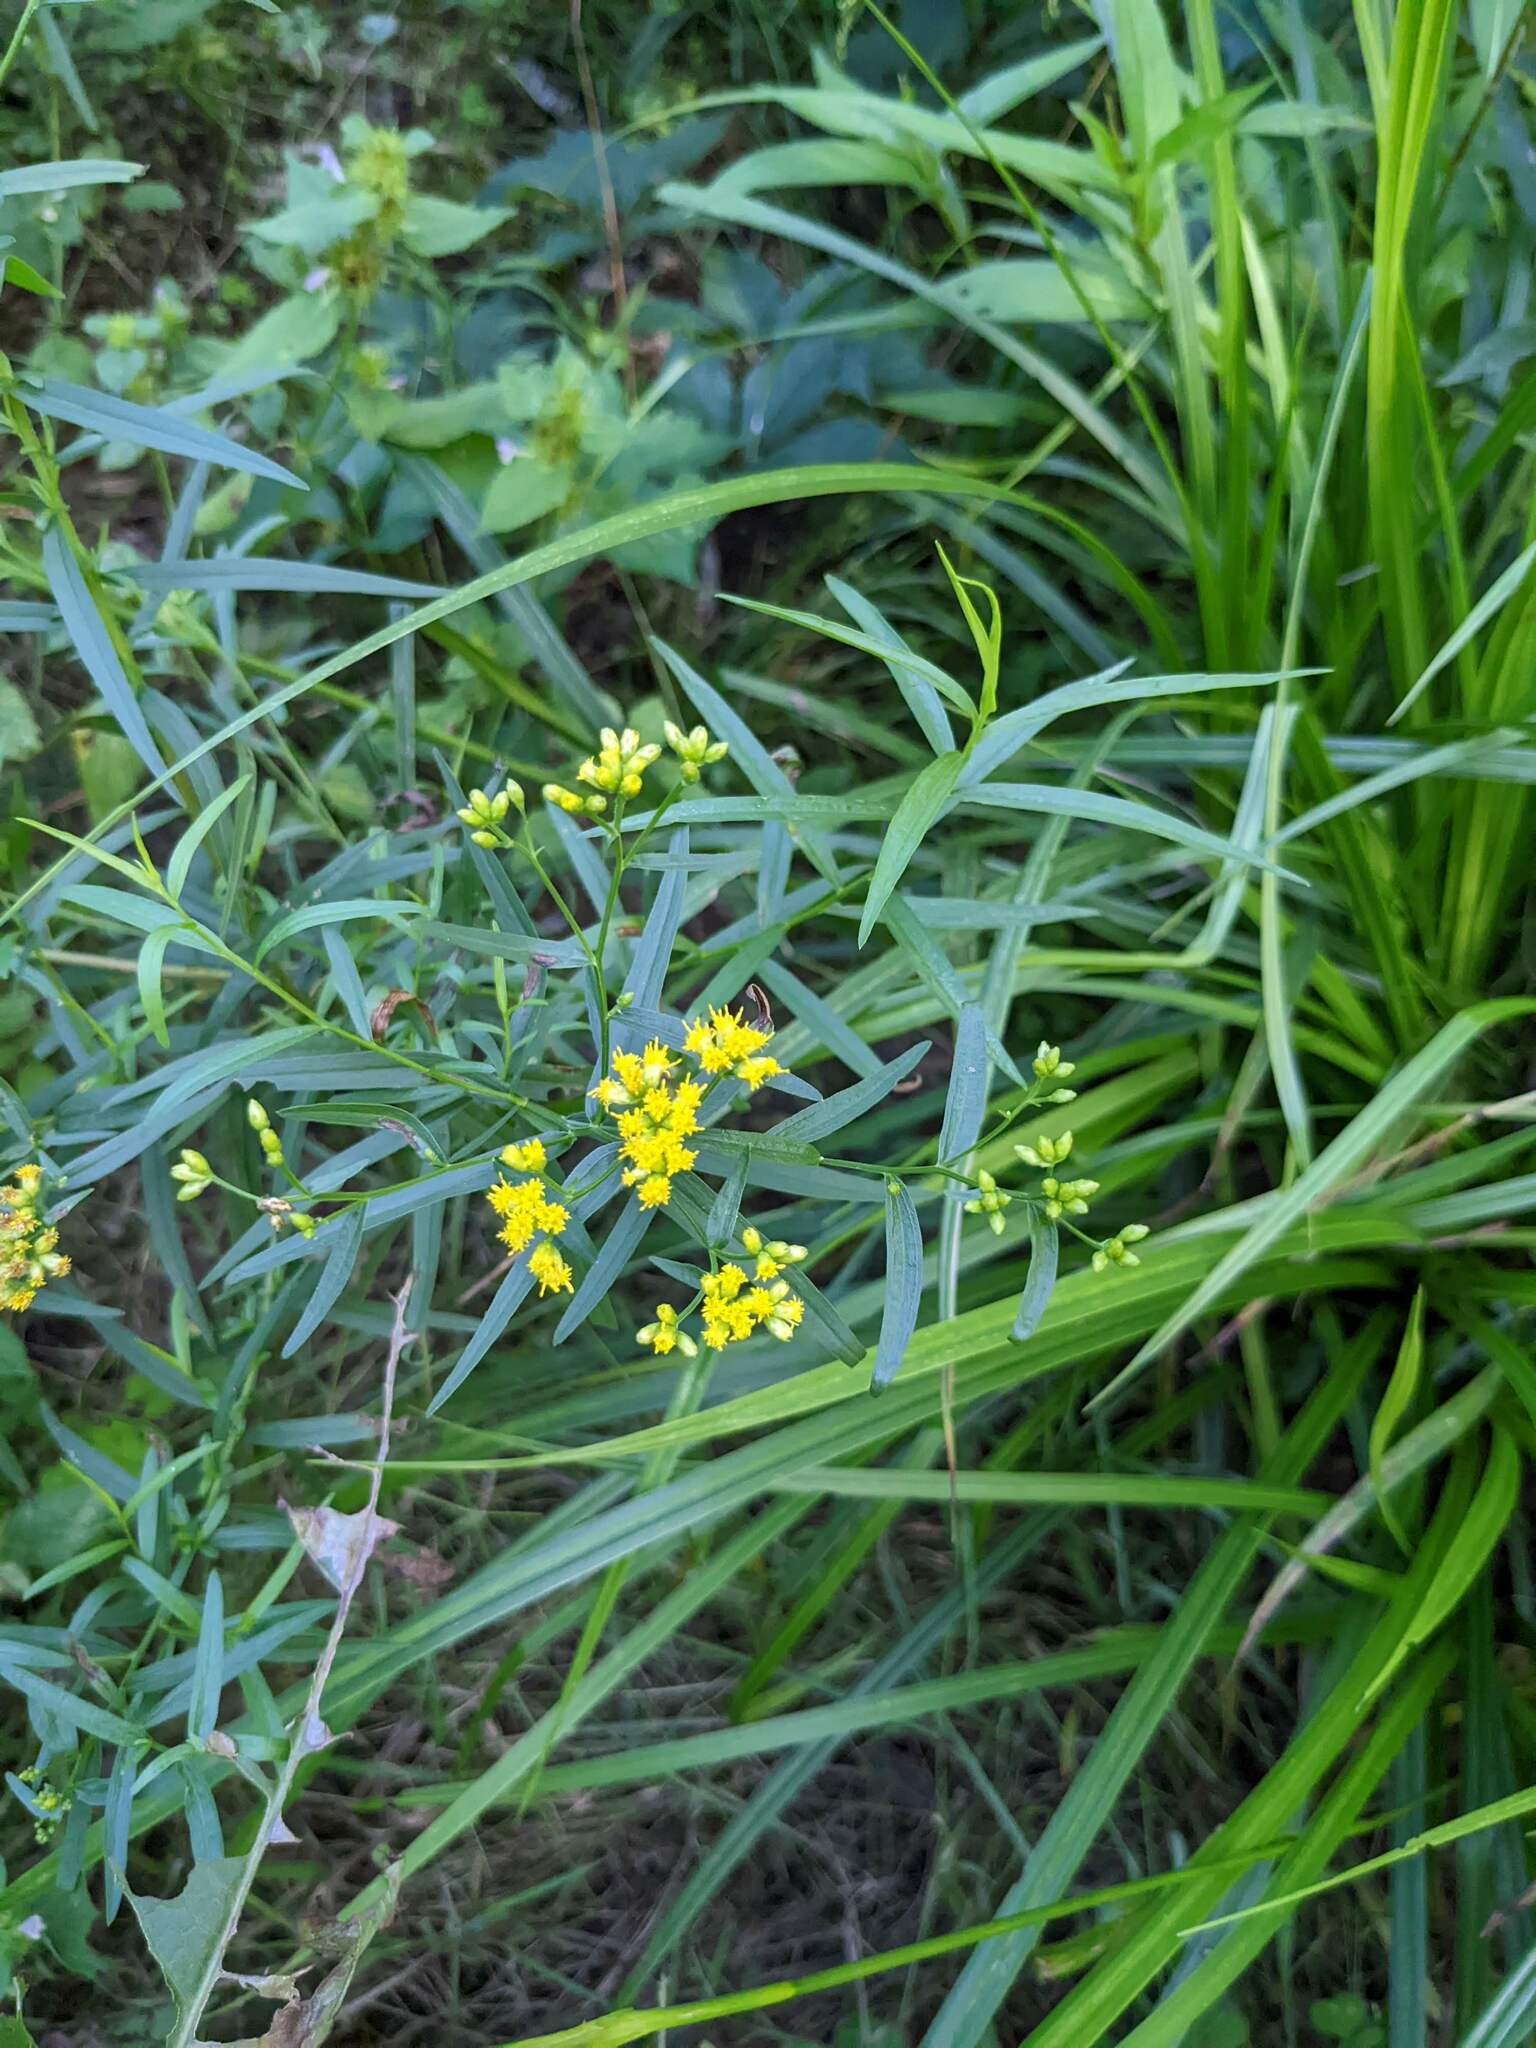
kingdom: Plantae
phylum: Tracheophyta
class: Magnoliopsida
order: Asterales
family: Asteraceae
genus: Euthamia
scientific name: Euthamia graminifolia
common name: Common goldentop
